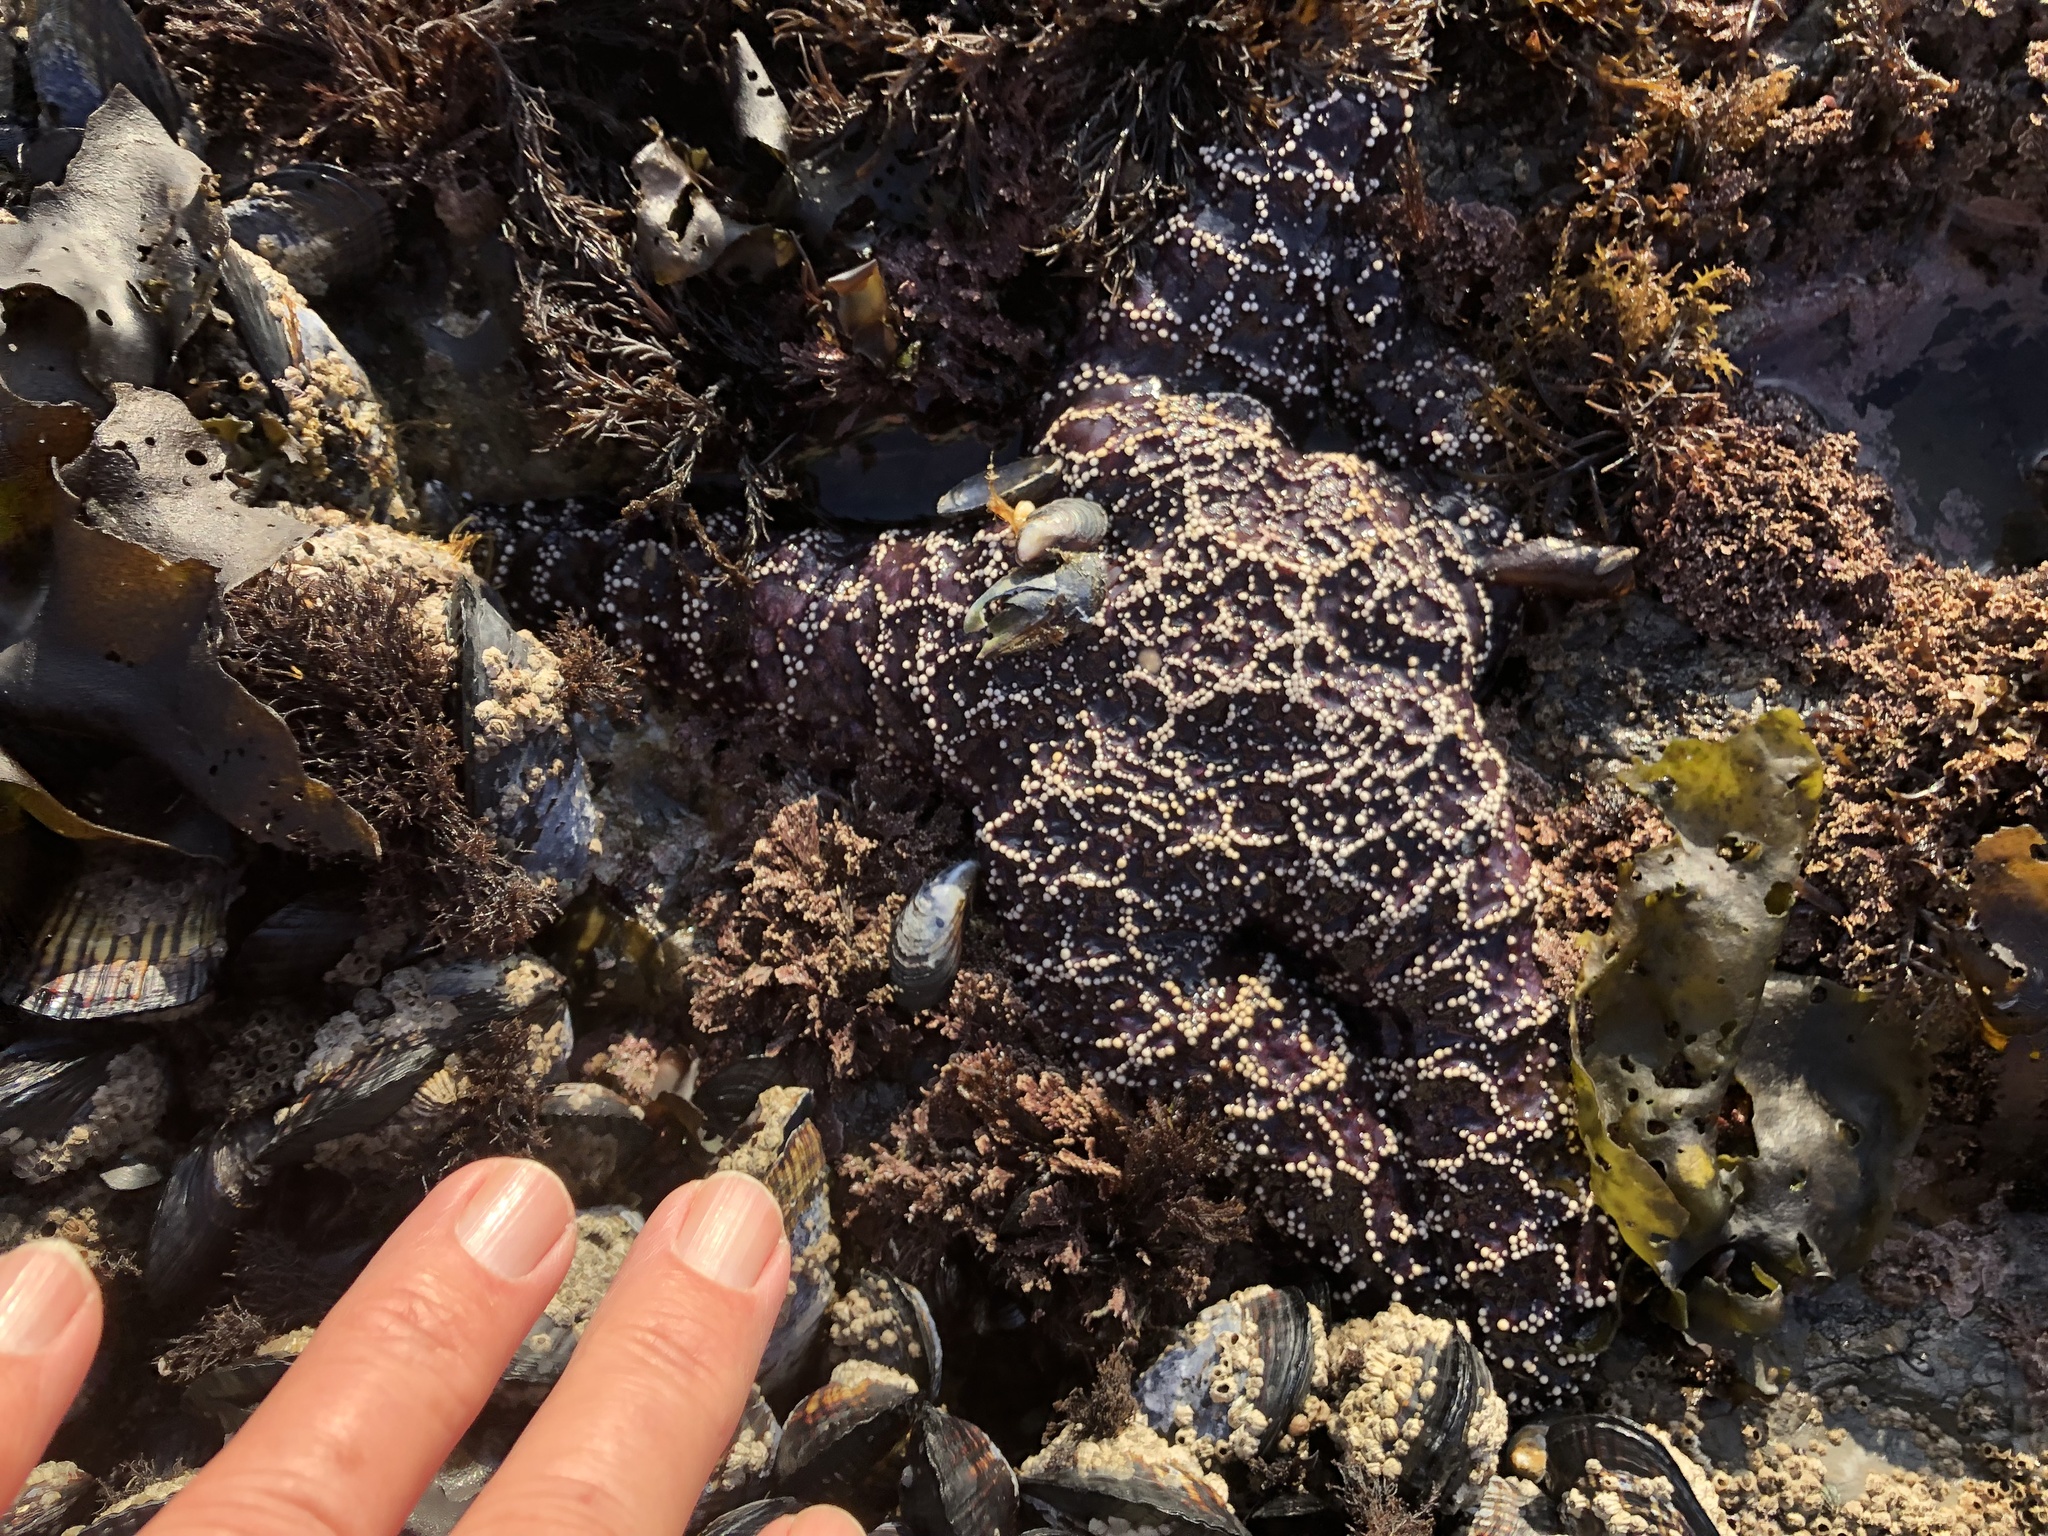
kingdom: Animalia
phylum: Echinodermata
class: Asteroidea
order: Forcipulatida
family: Asteriidae
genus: Pisaster
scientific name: Pisaster ochraceus
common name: Ochre stars
